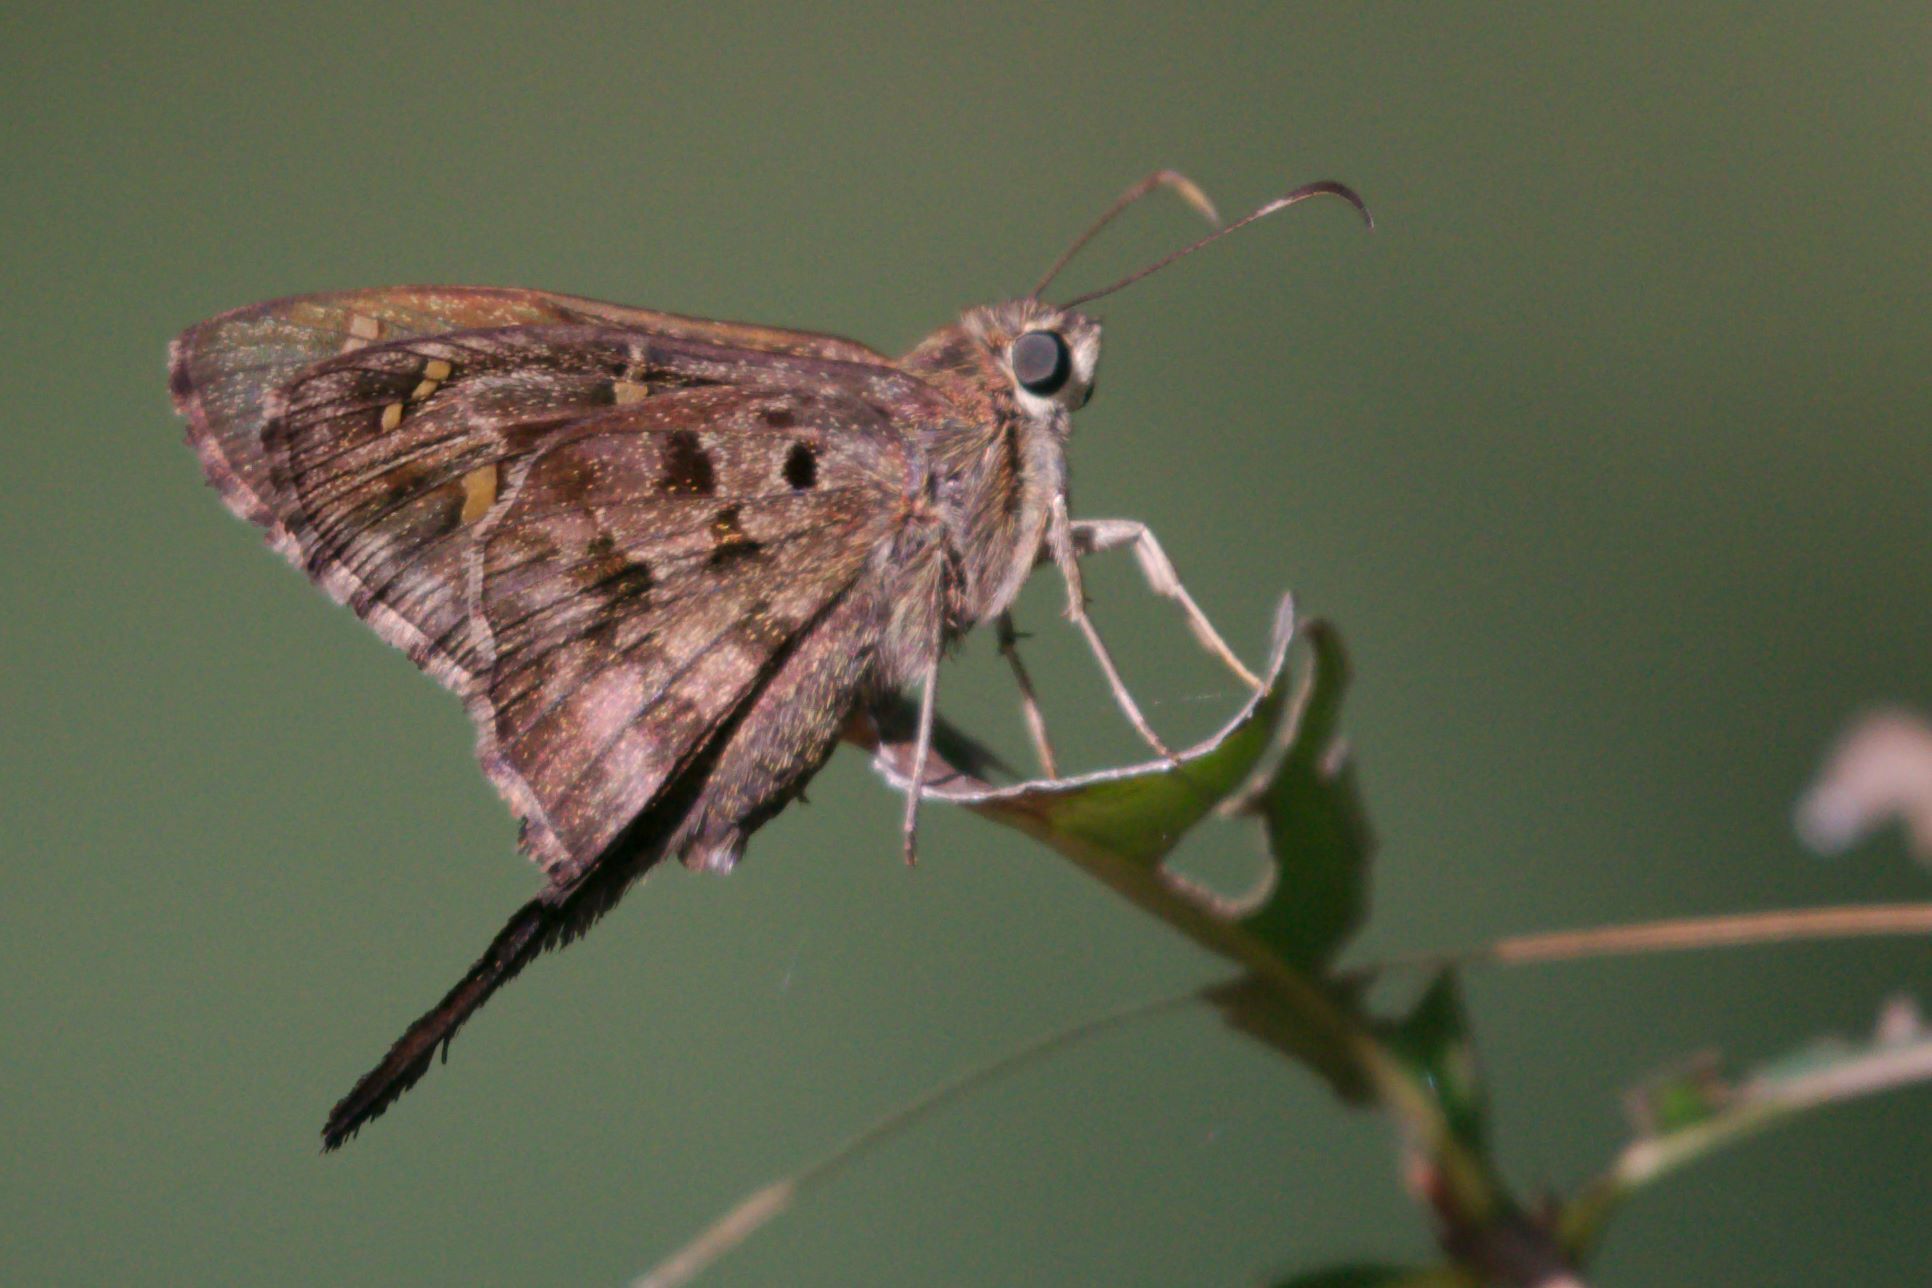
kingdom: Animalia
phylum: Arthropoda
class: Insecta
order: Lepidoptera
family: Hesperiidae
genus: Thorybes
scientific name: Thorybes
